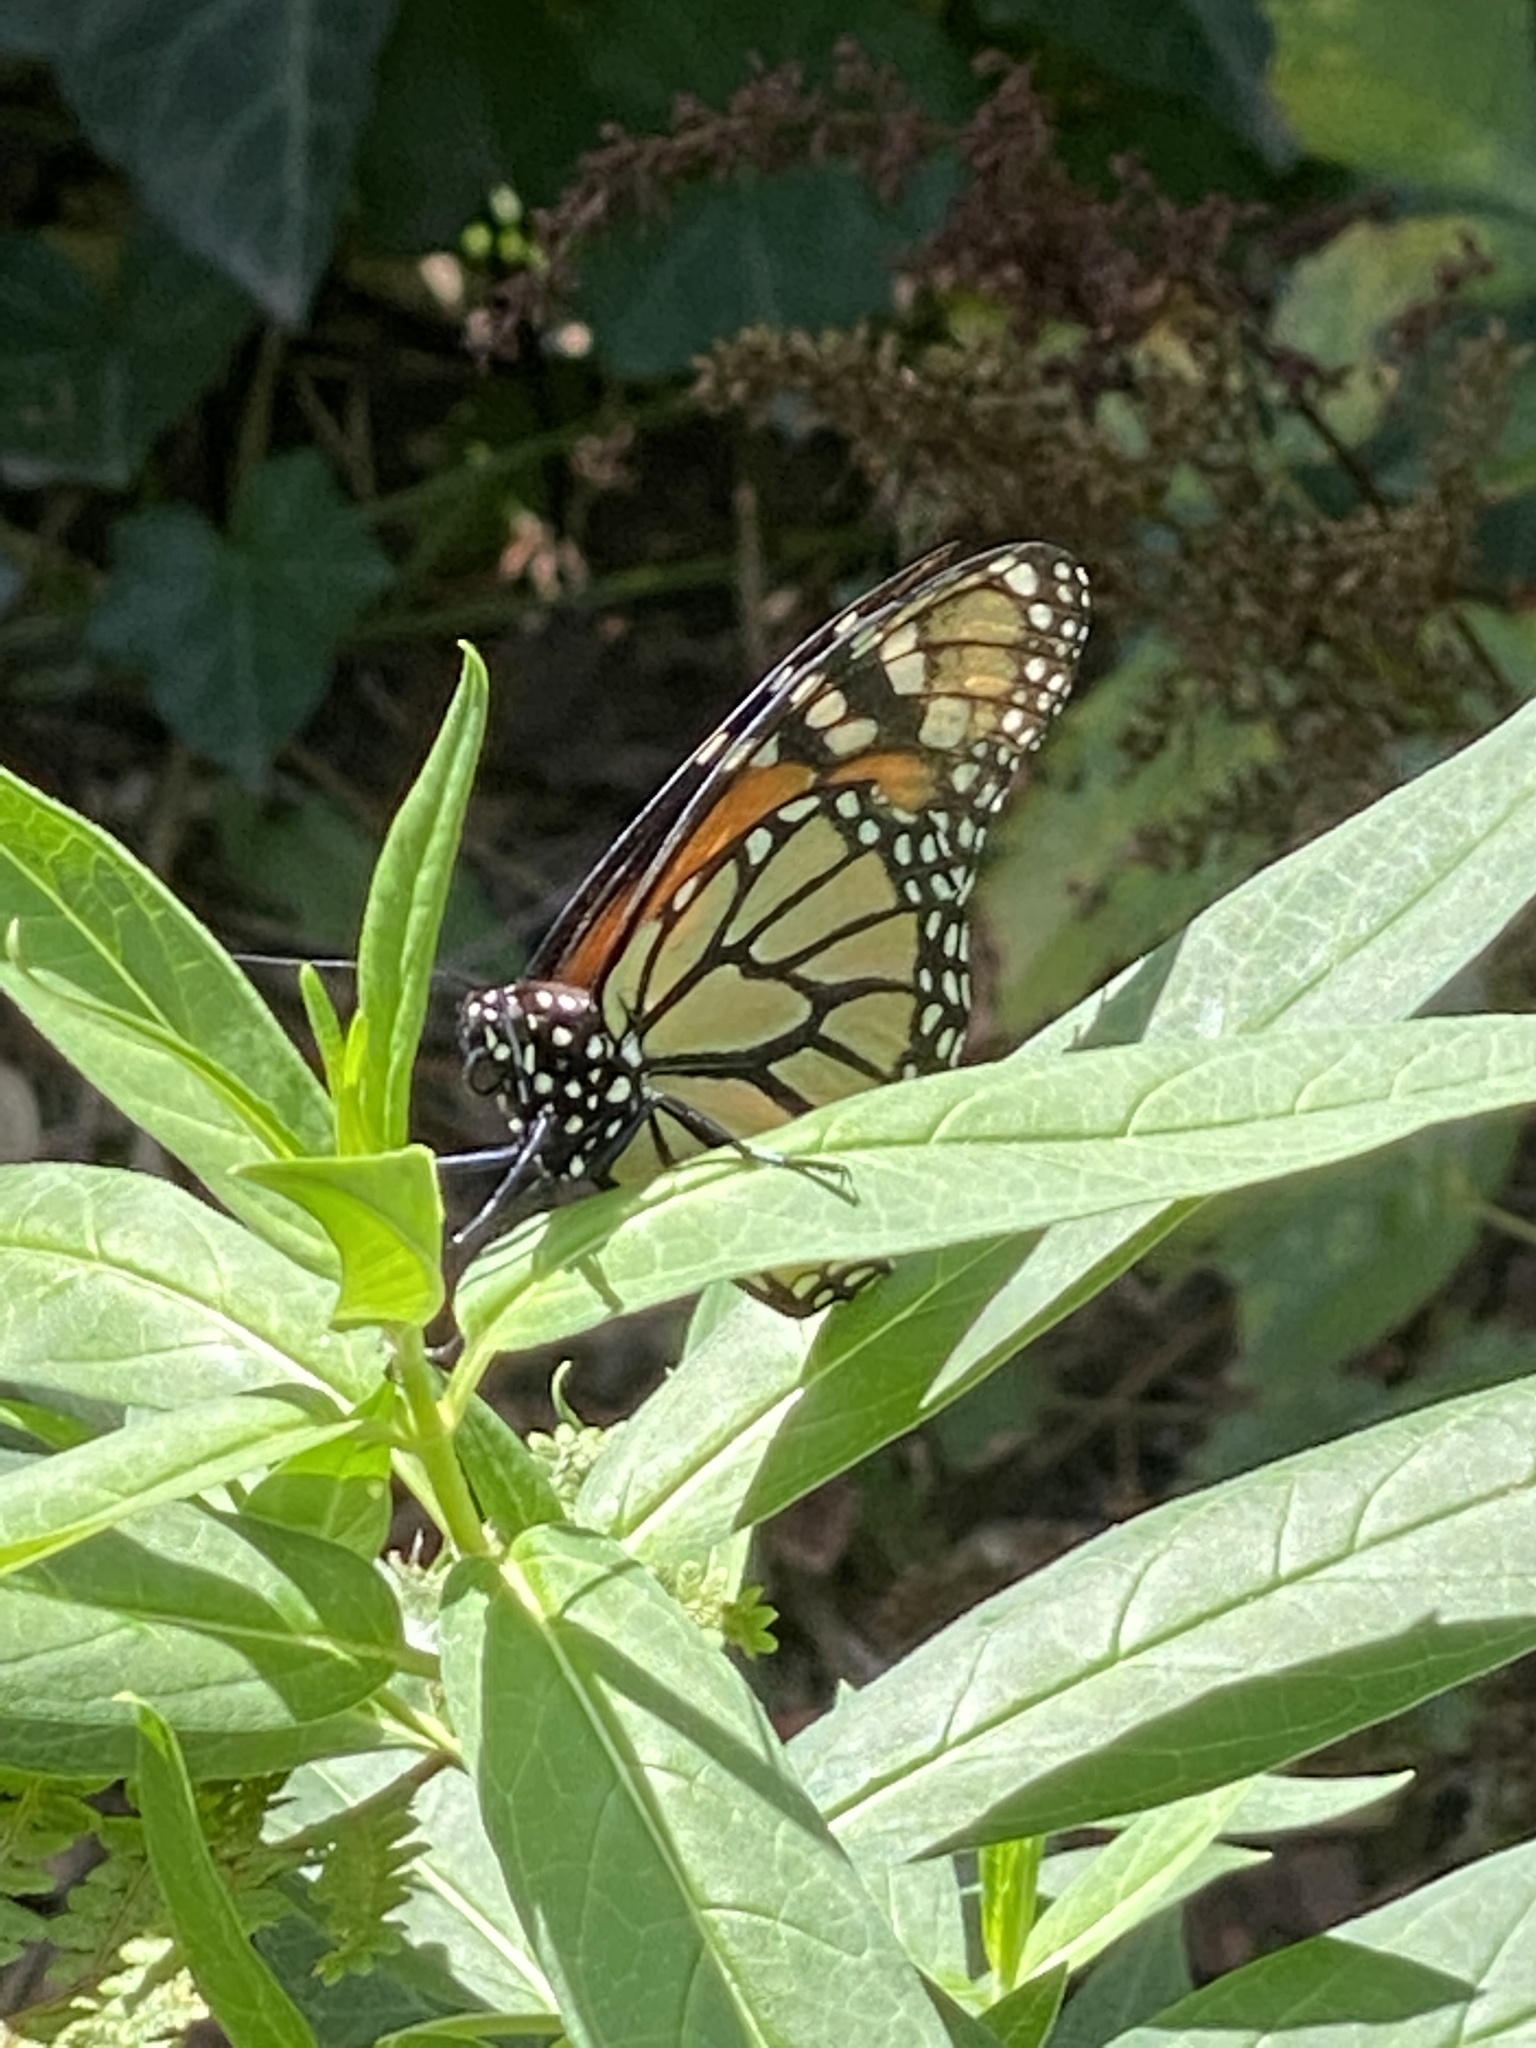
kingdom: Animalia
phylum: Arthropoda
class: Insecta
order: Lepidoptera
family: Nymphalidae
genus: Danaus
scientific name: Danaus plexippus
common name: Monarch
